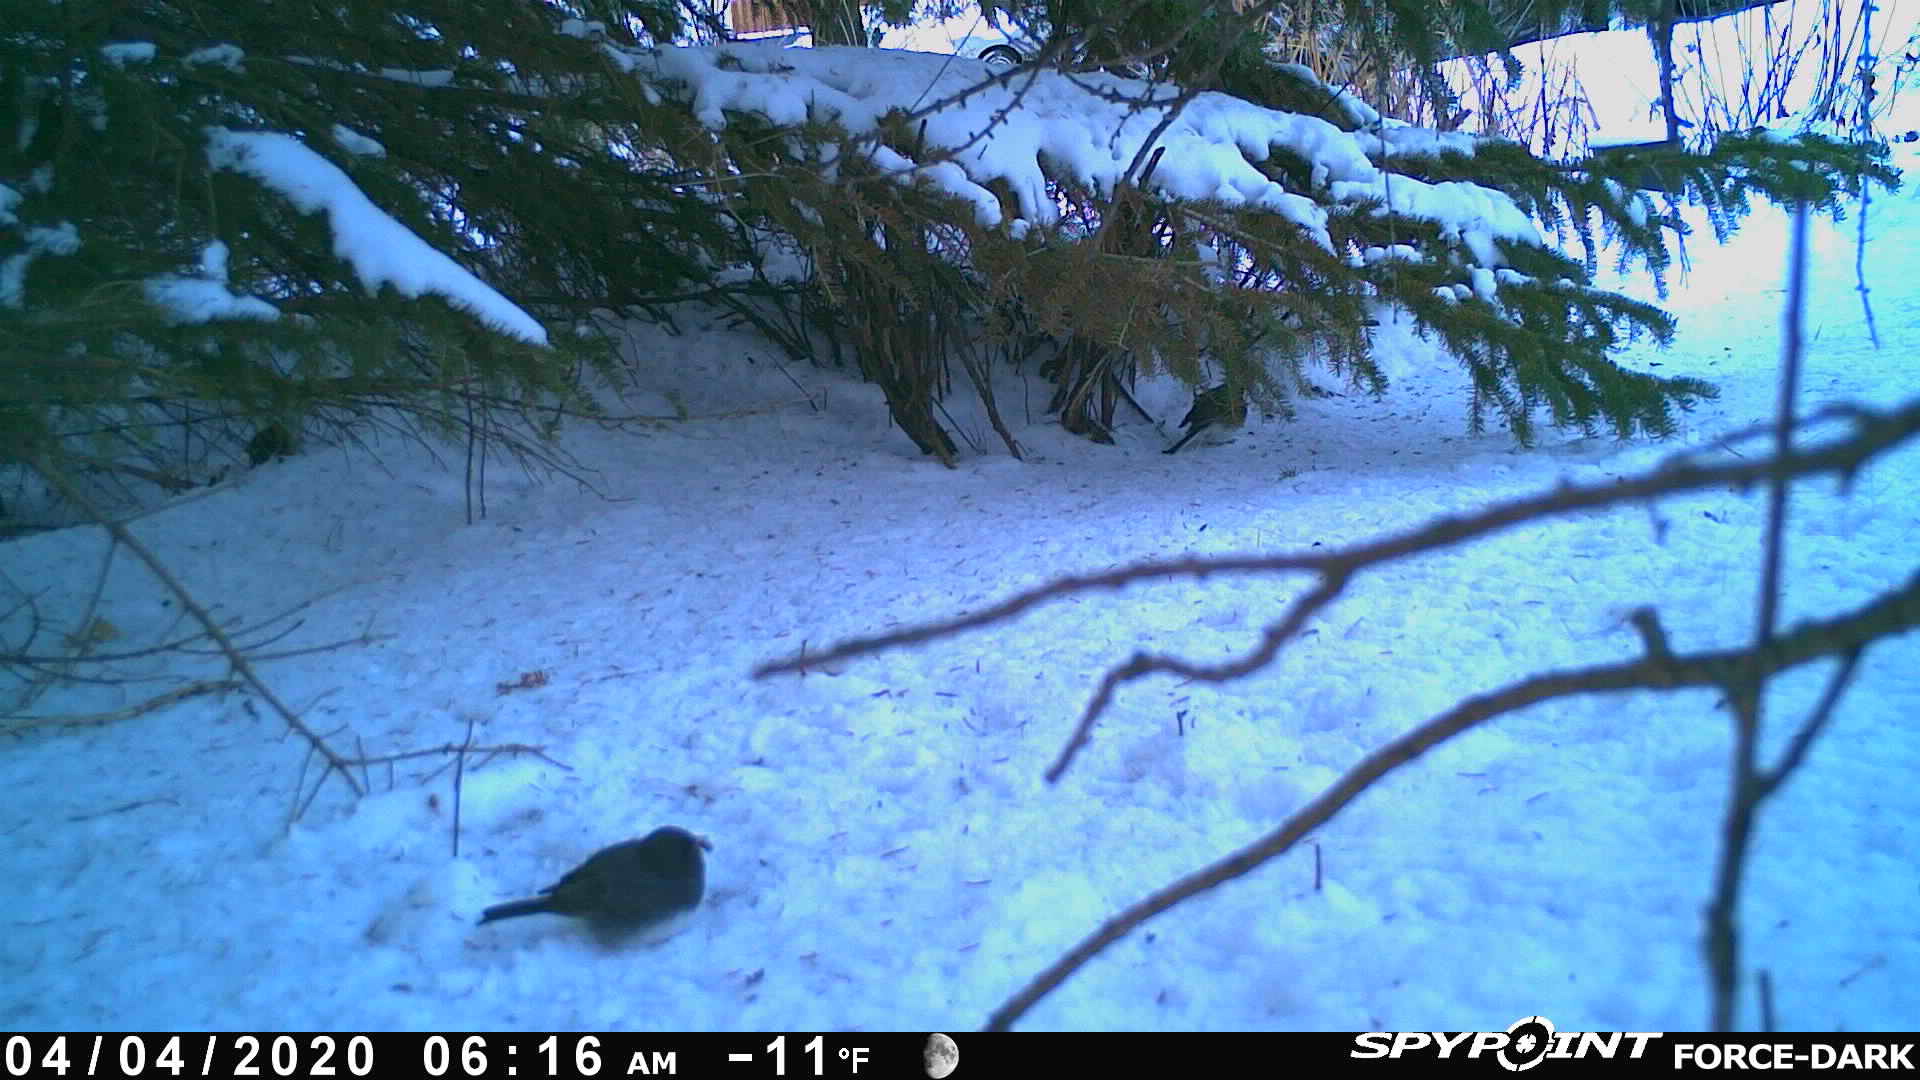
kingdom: Animalia
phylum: Chordata
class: Aves
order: Passeriformes
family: Passerellidae
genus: Junco
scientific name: Junco hyemalis
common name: Dark-eyed junco
